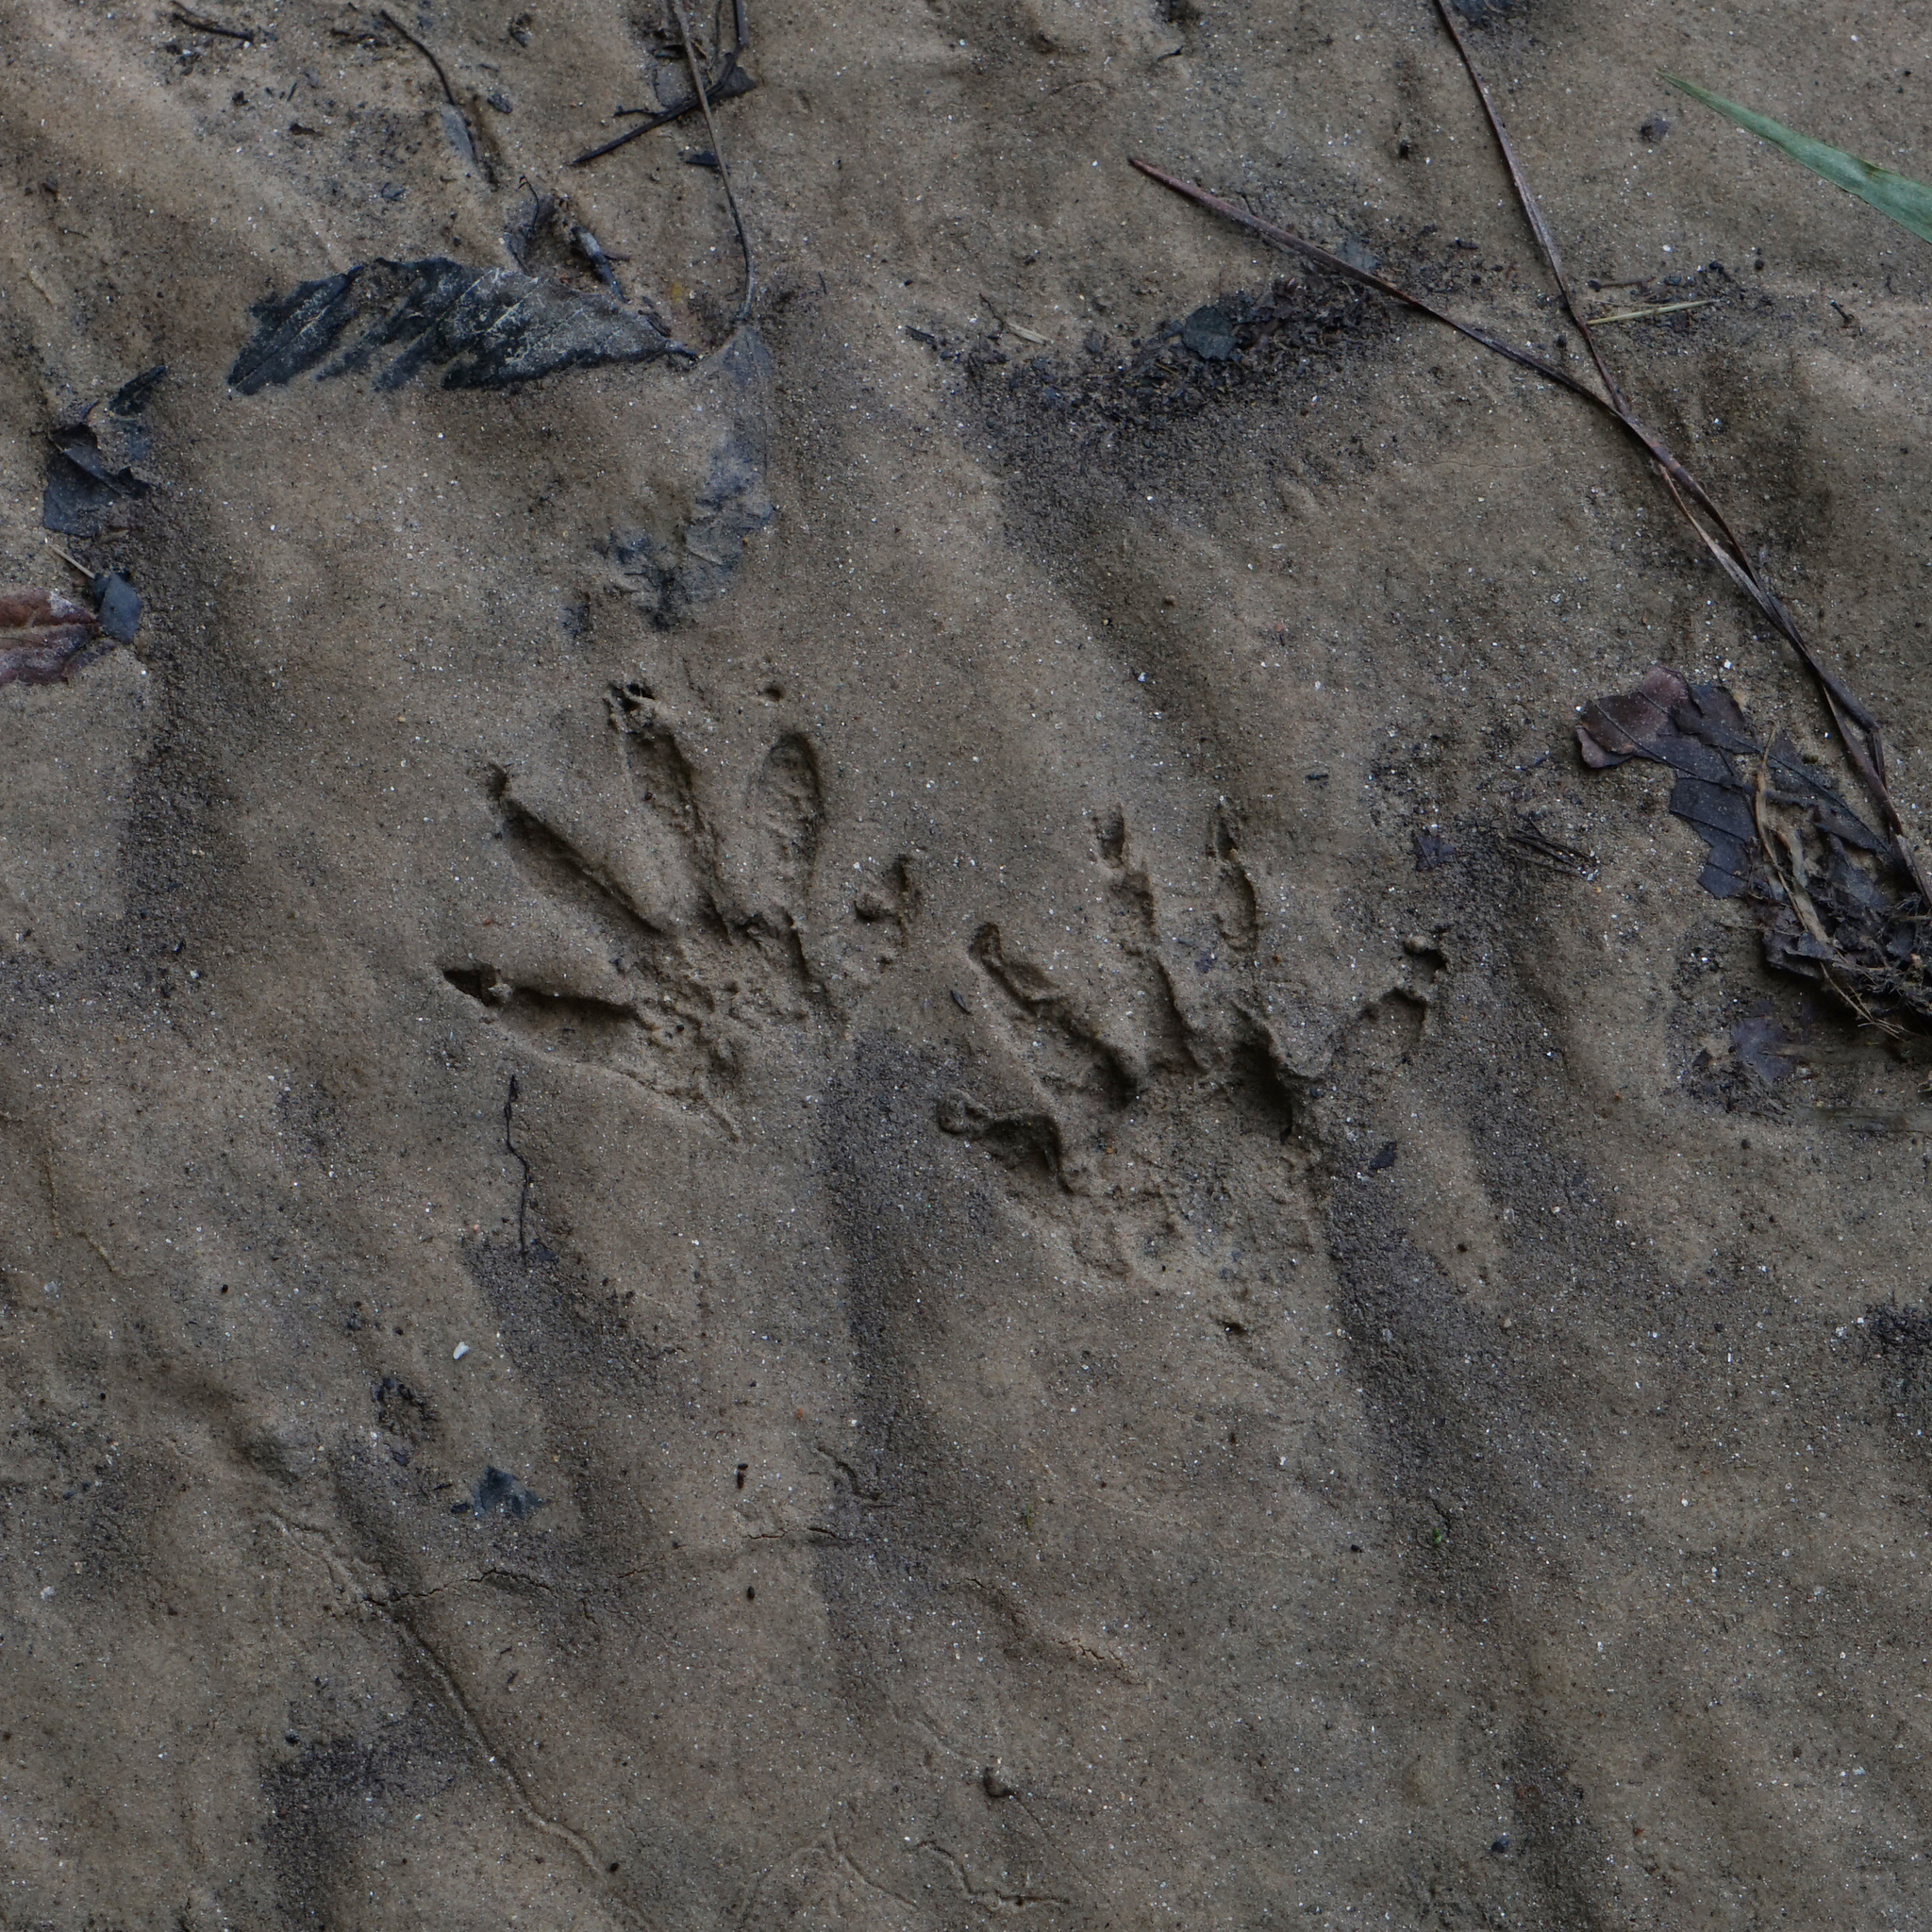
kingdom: Animalia
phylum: Chordata
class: Mammalia
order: Carnivora
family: Procyonidae
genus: Procyon
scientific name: Procyon lotor
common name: Raccoon
